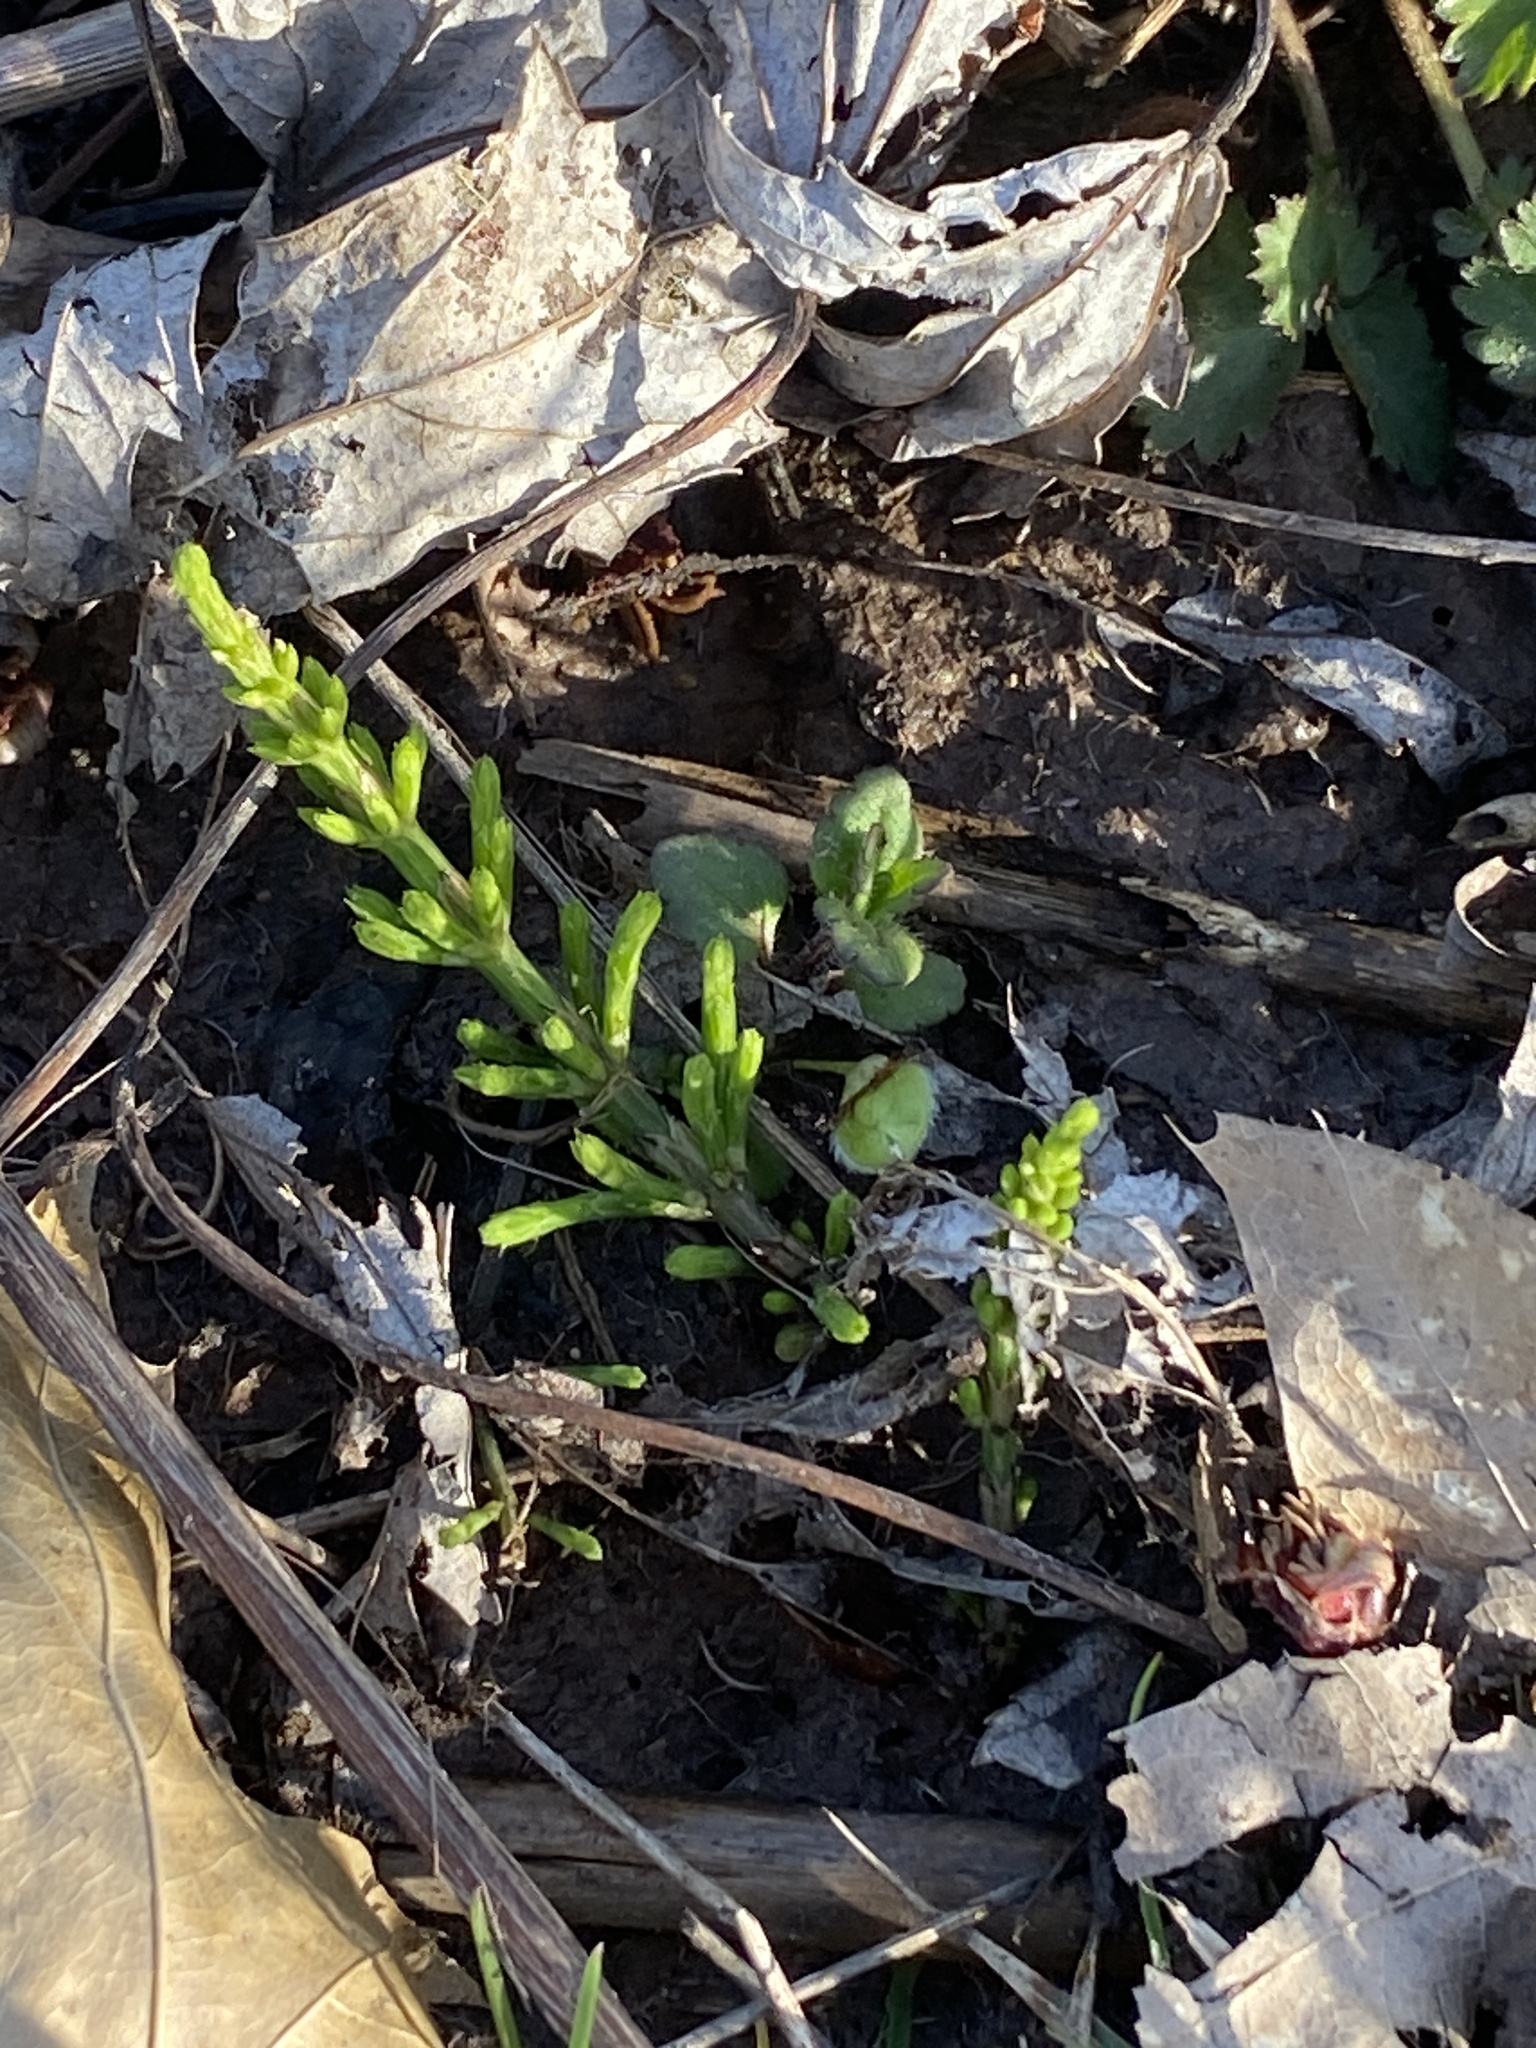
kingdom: Plantae
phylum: Tracheophyta
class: Polypodiopsida
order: Equisetales
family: Equisetaceae
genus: Equisetum
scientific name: Equisetum arvense
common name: Field horsetail
